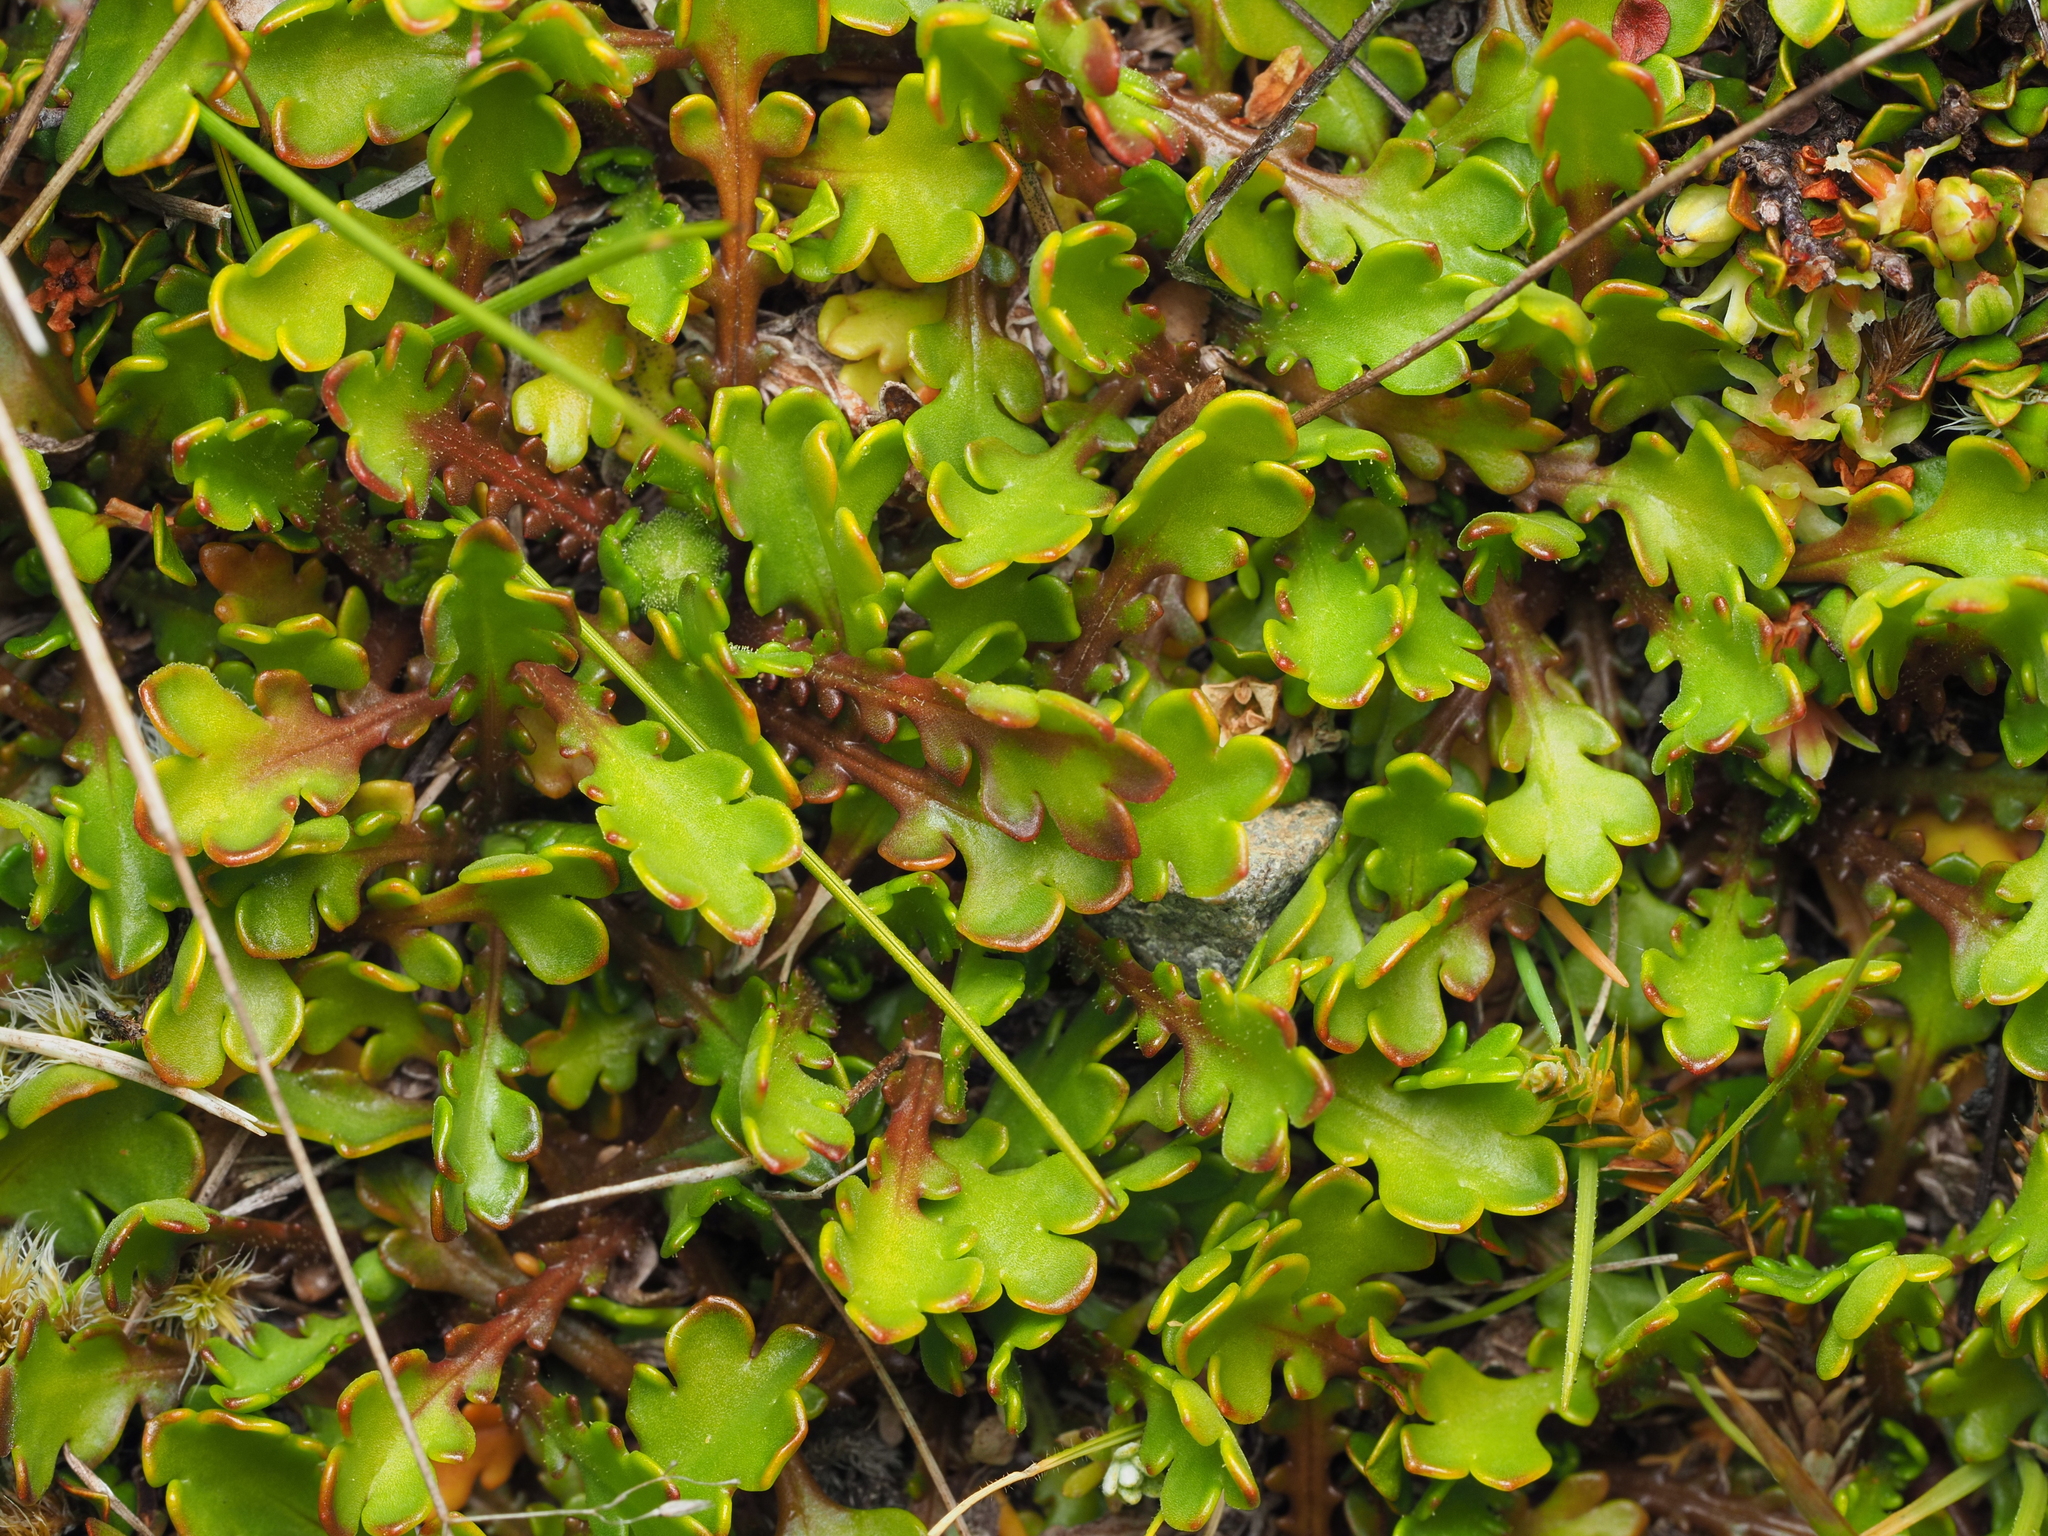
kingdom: Plantae
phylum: Tracheophyta
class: Magnoliopsida
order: Asterales
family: Asteraceae
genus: Brachyscome
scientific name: Brachyscome sinclairii
